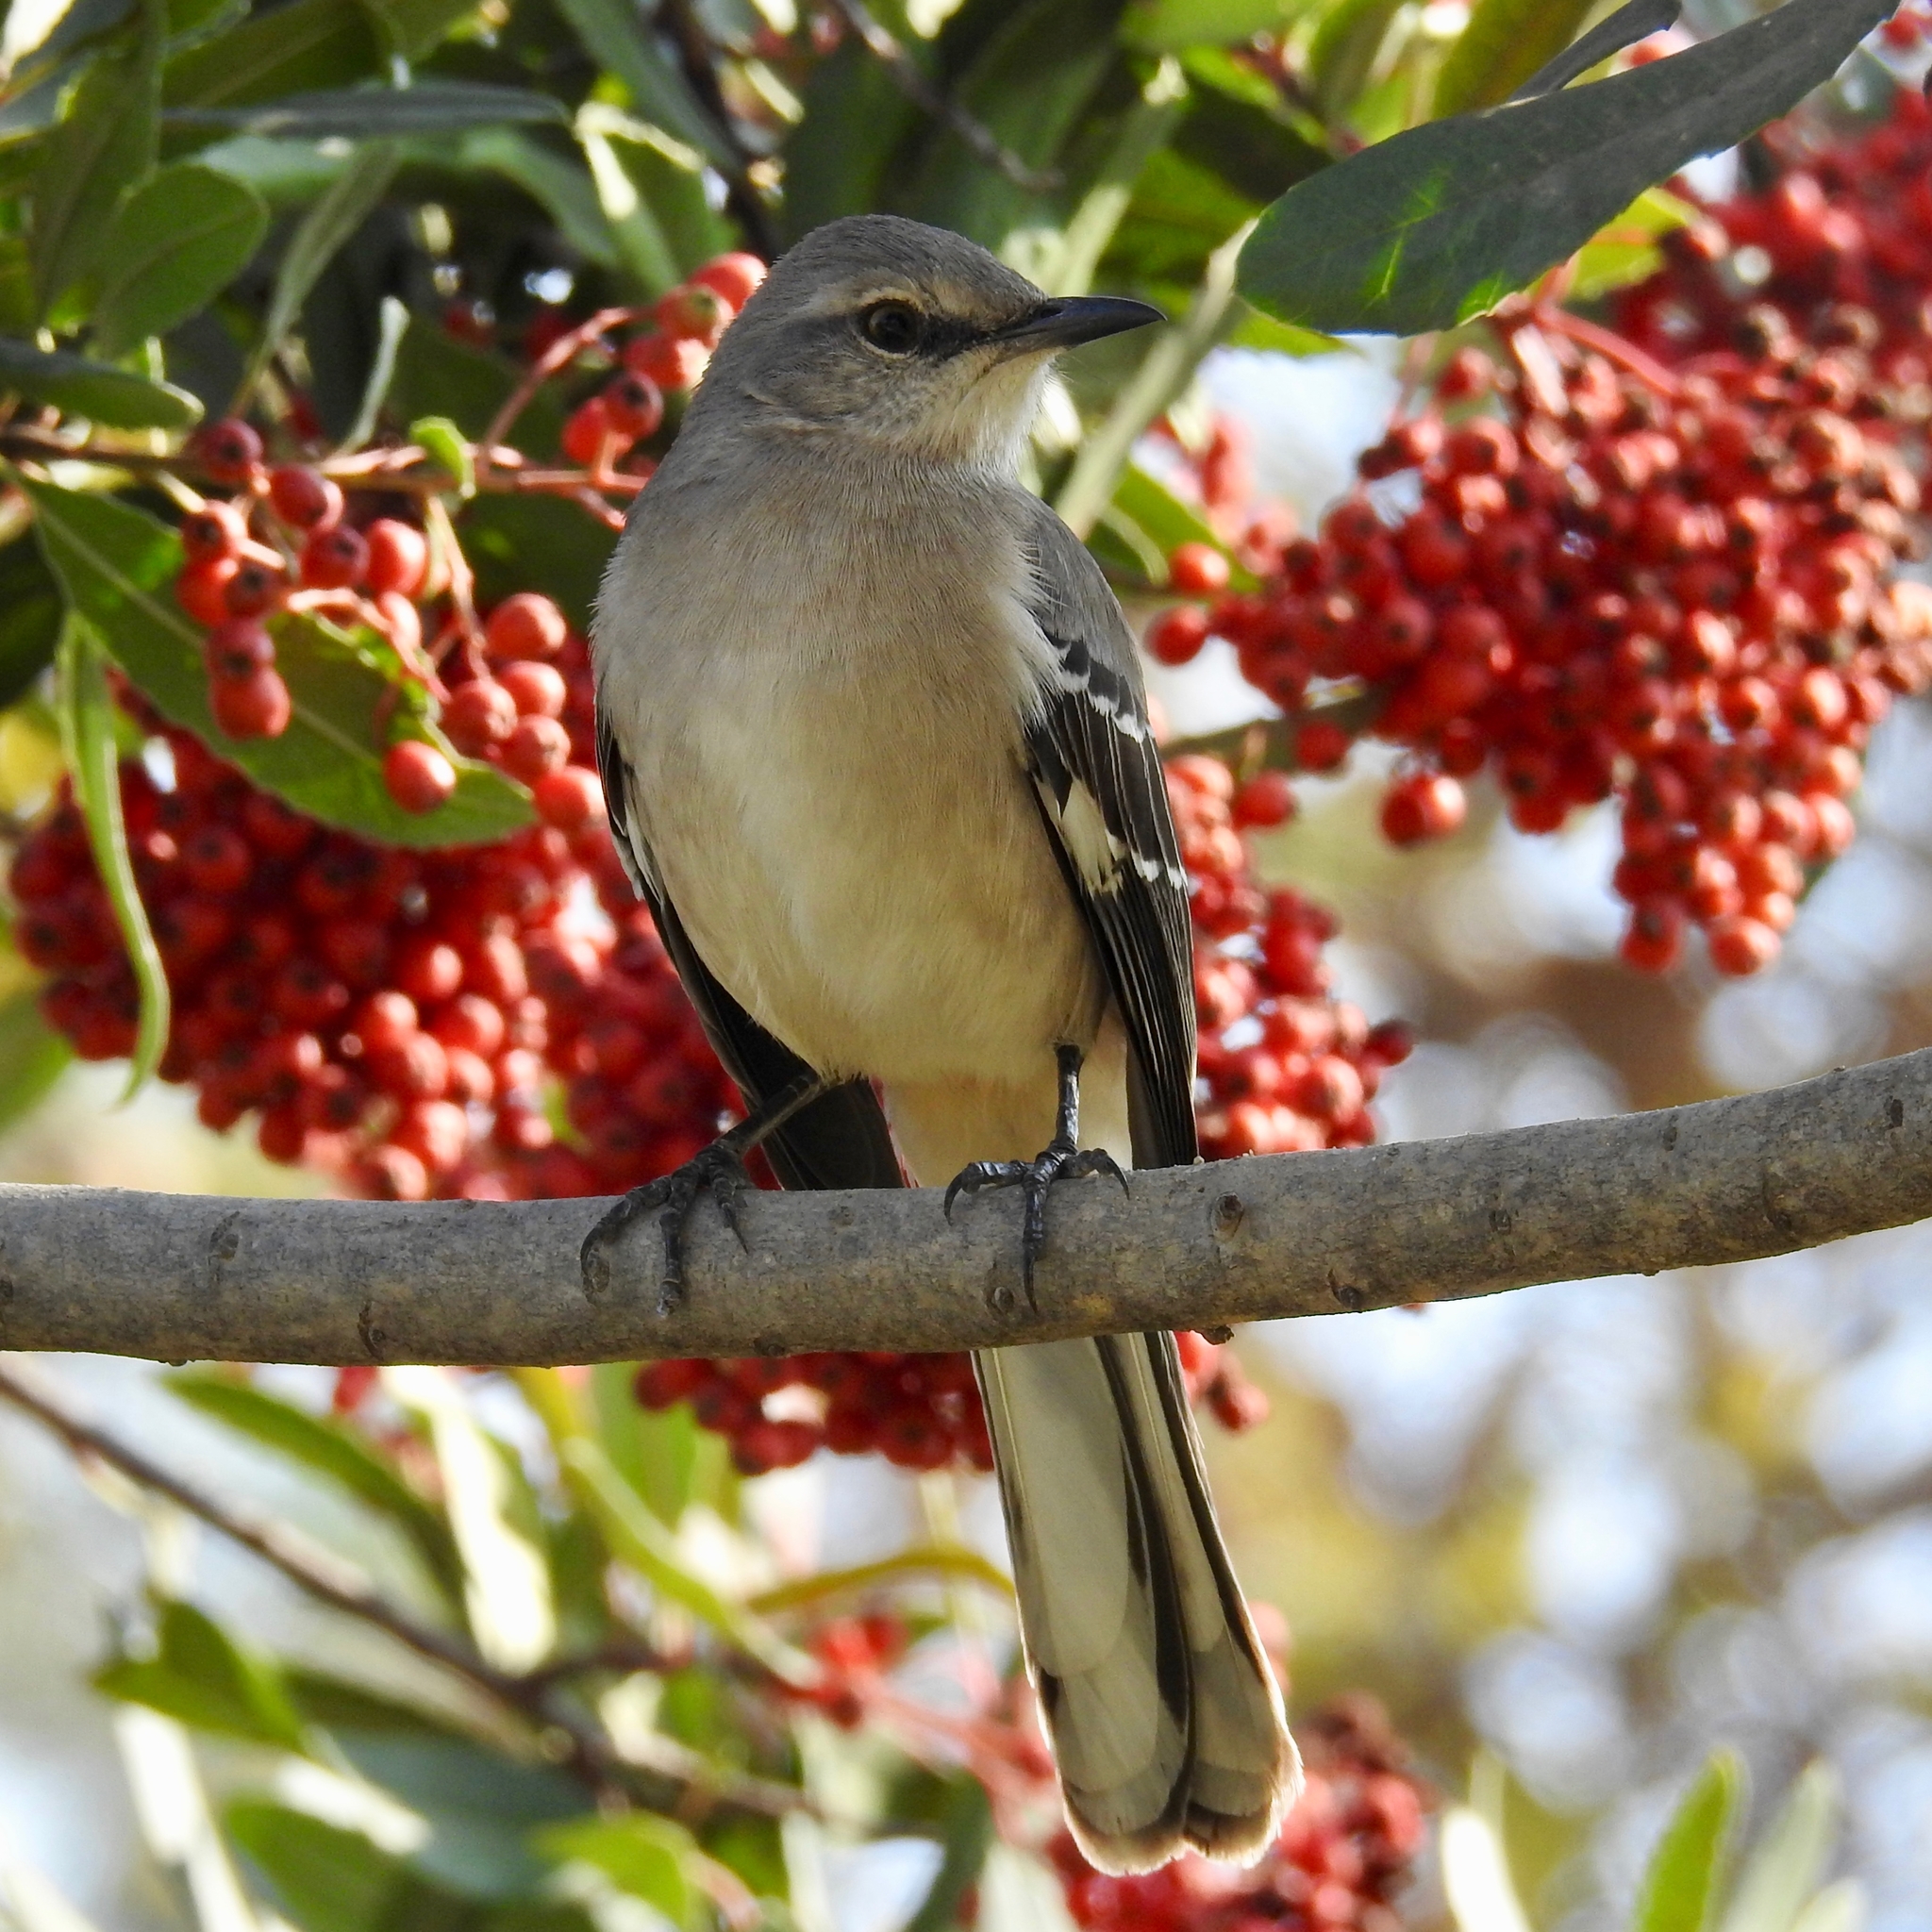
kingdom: Animalia
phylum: Chordata
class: Aves
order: Passeriformes
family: Mimidae
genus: Mimus
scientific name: Mimus polyglottos
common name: Northern mockingbird
